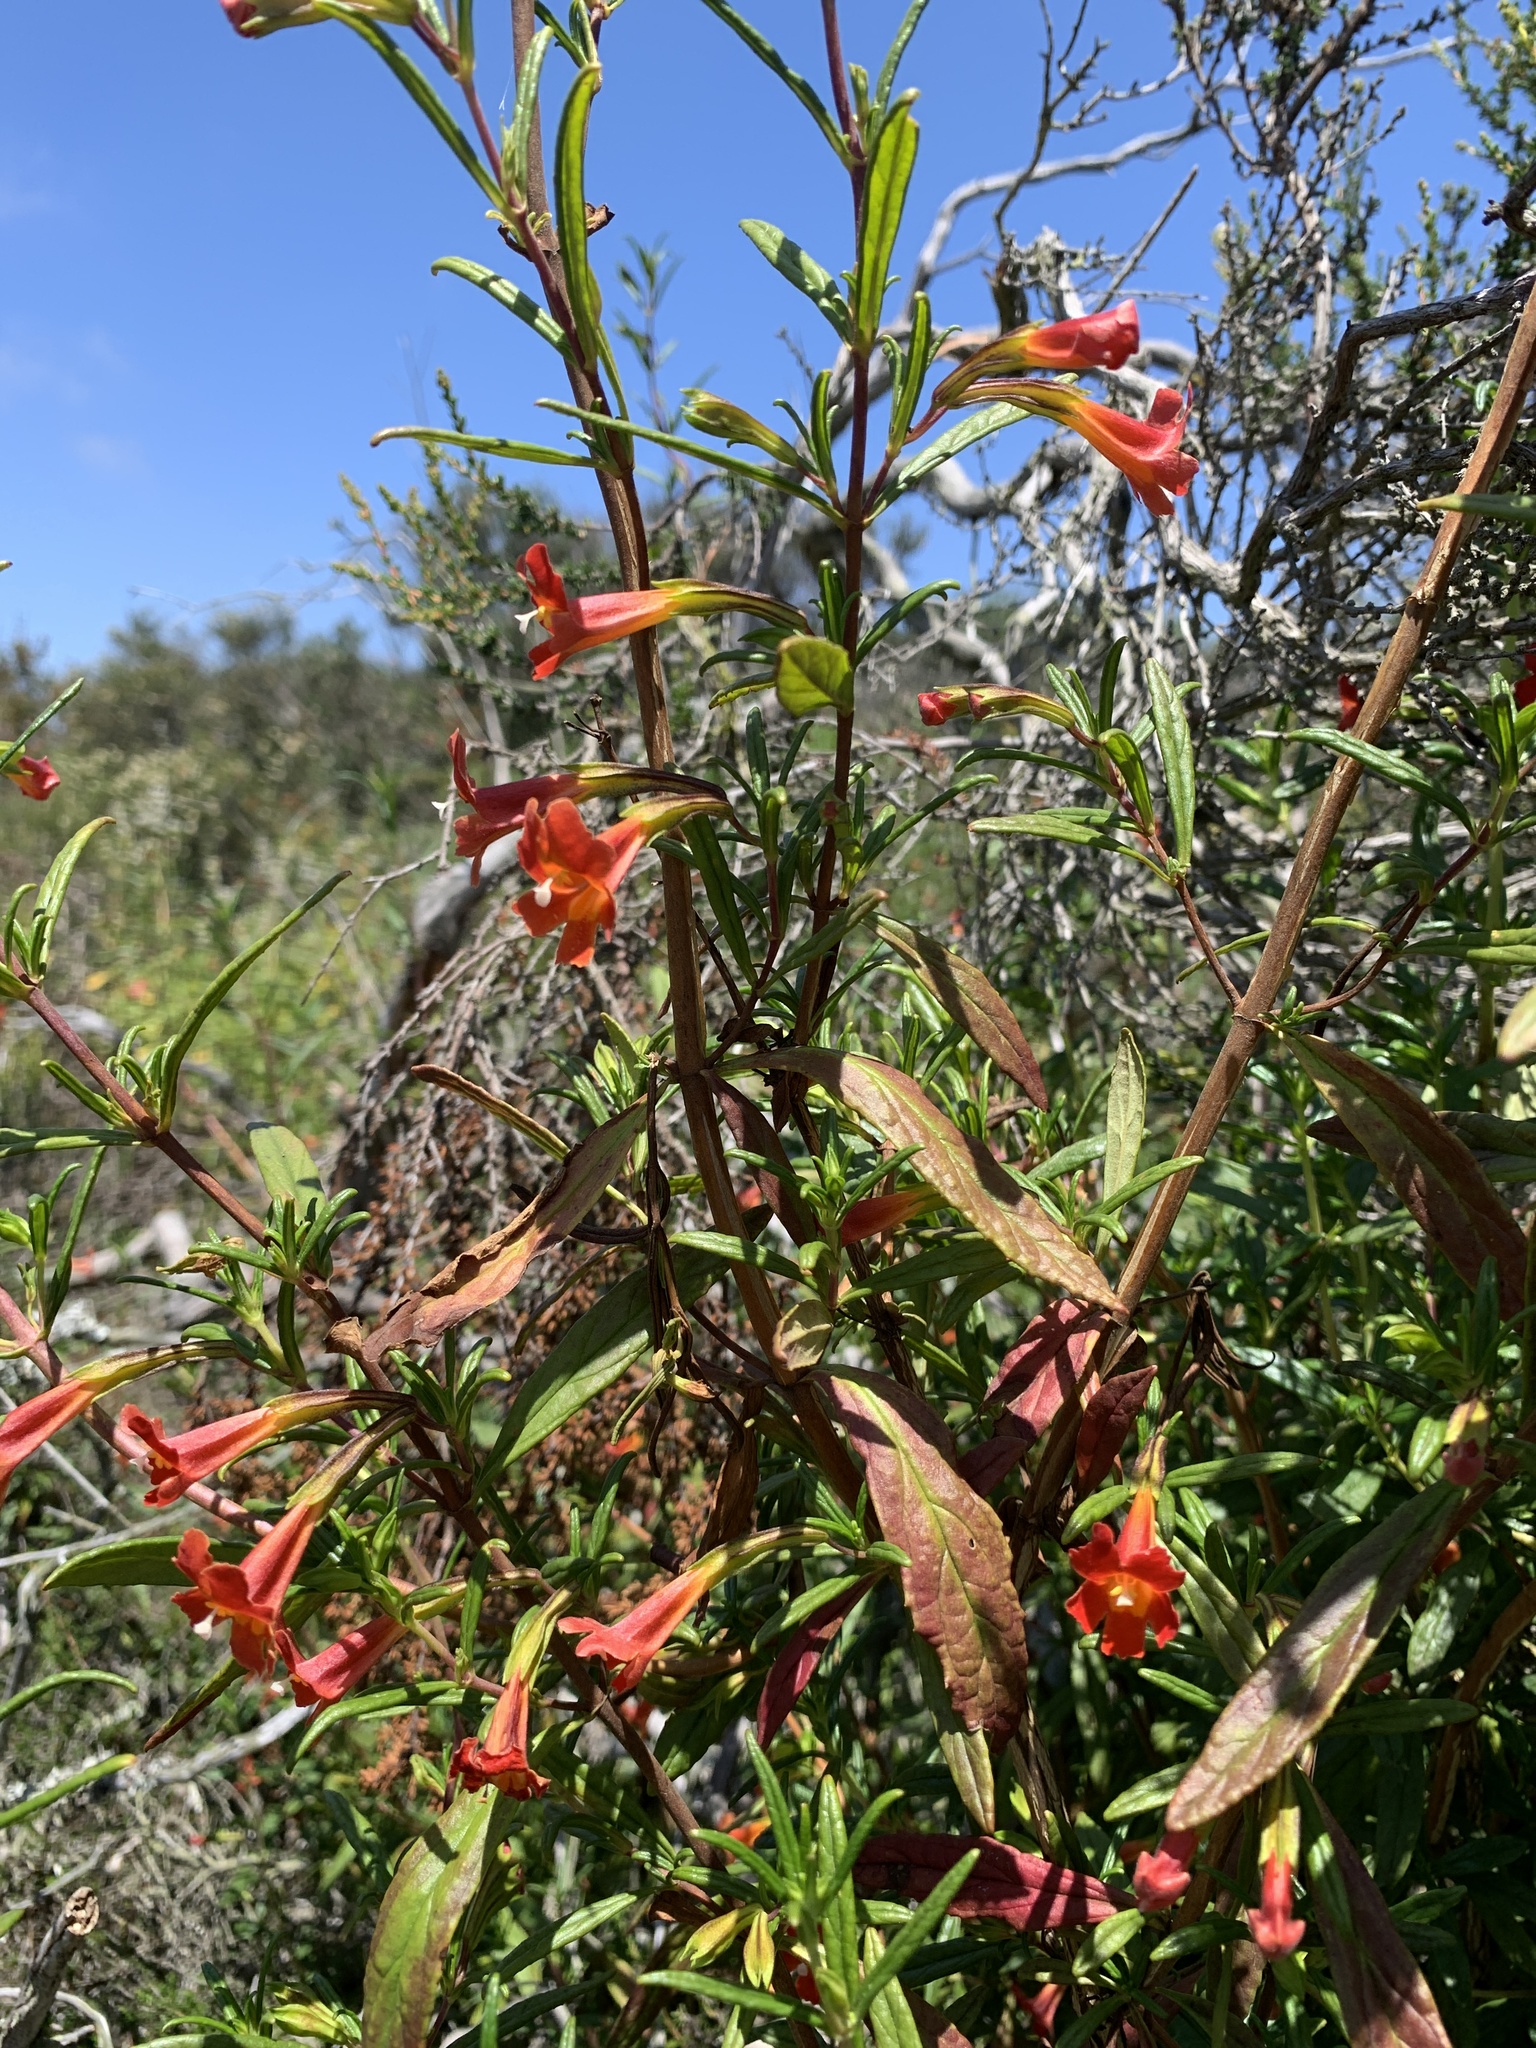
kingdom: Plantae
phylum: Tracheophyta
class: Magnoliopsida
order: Lamiales
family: Phrymaceae
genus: Diplacus
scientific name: Diplacus puniceus
